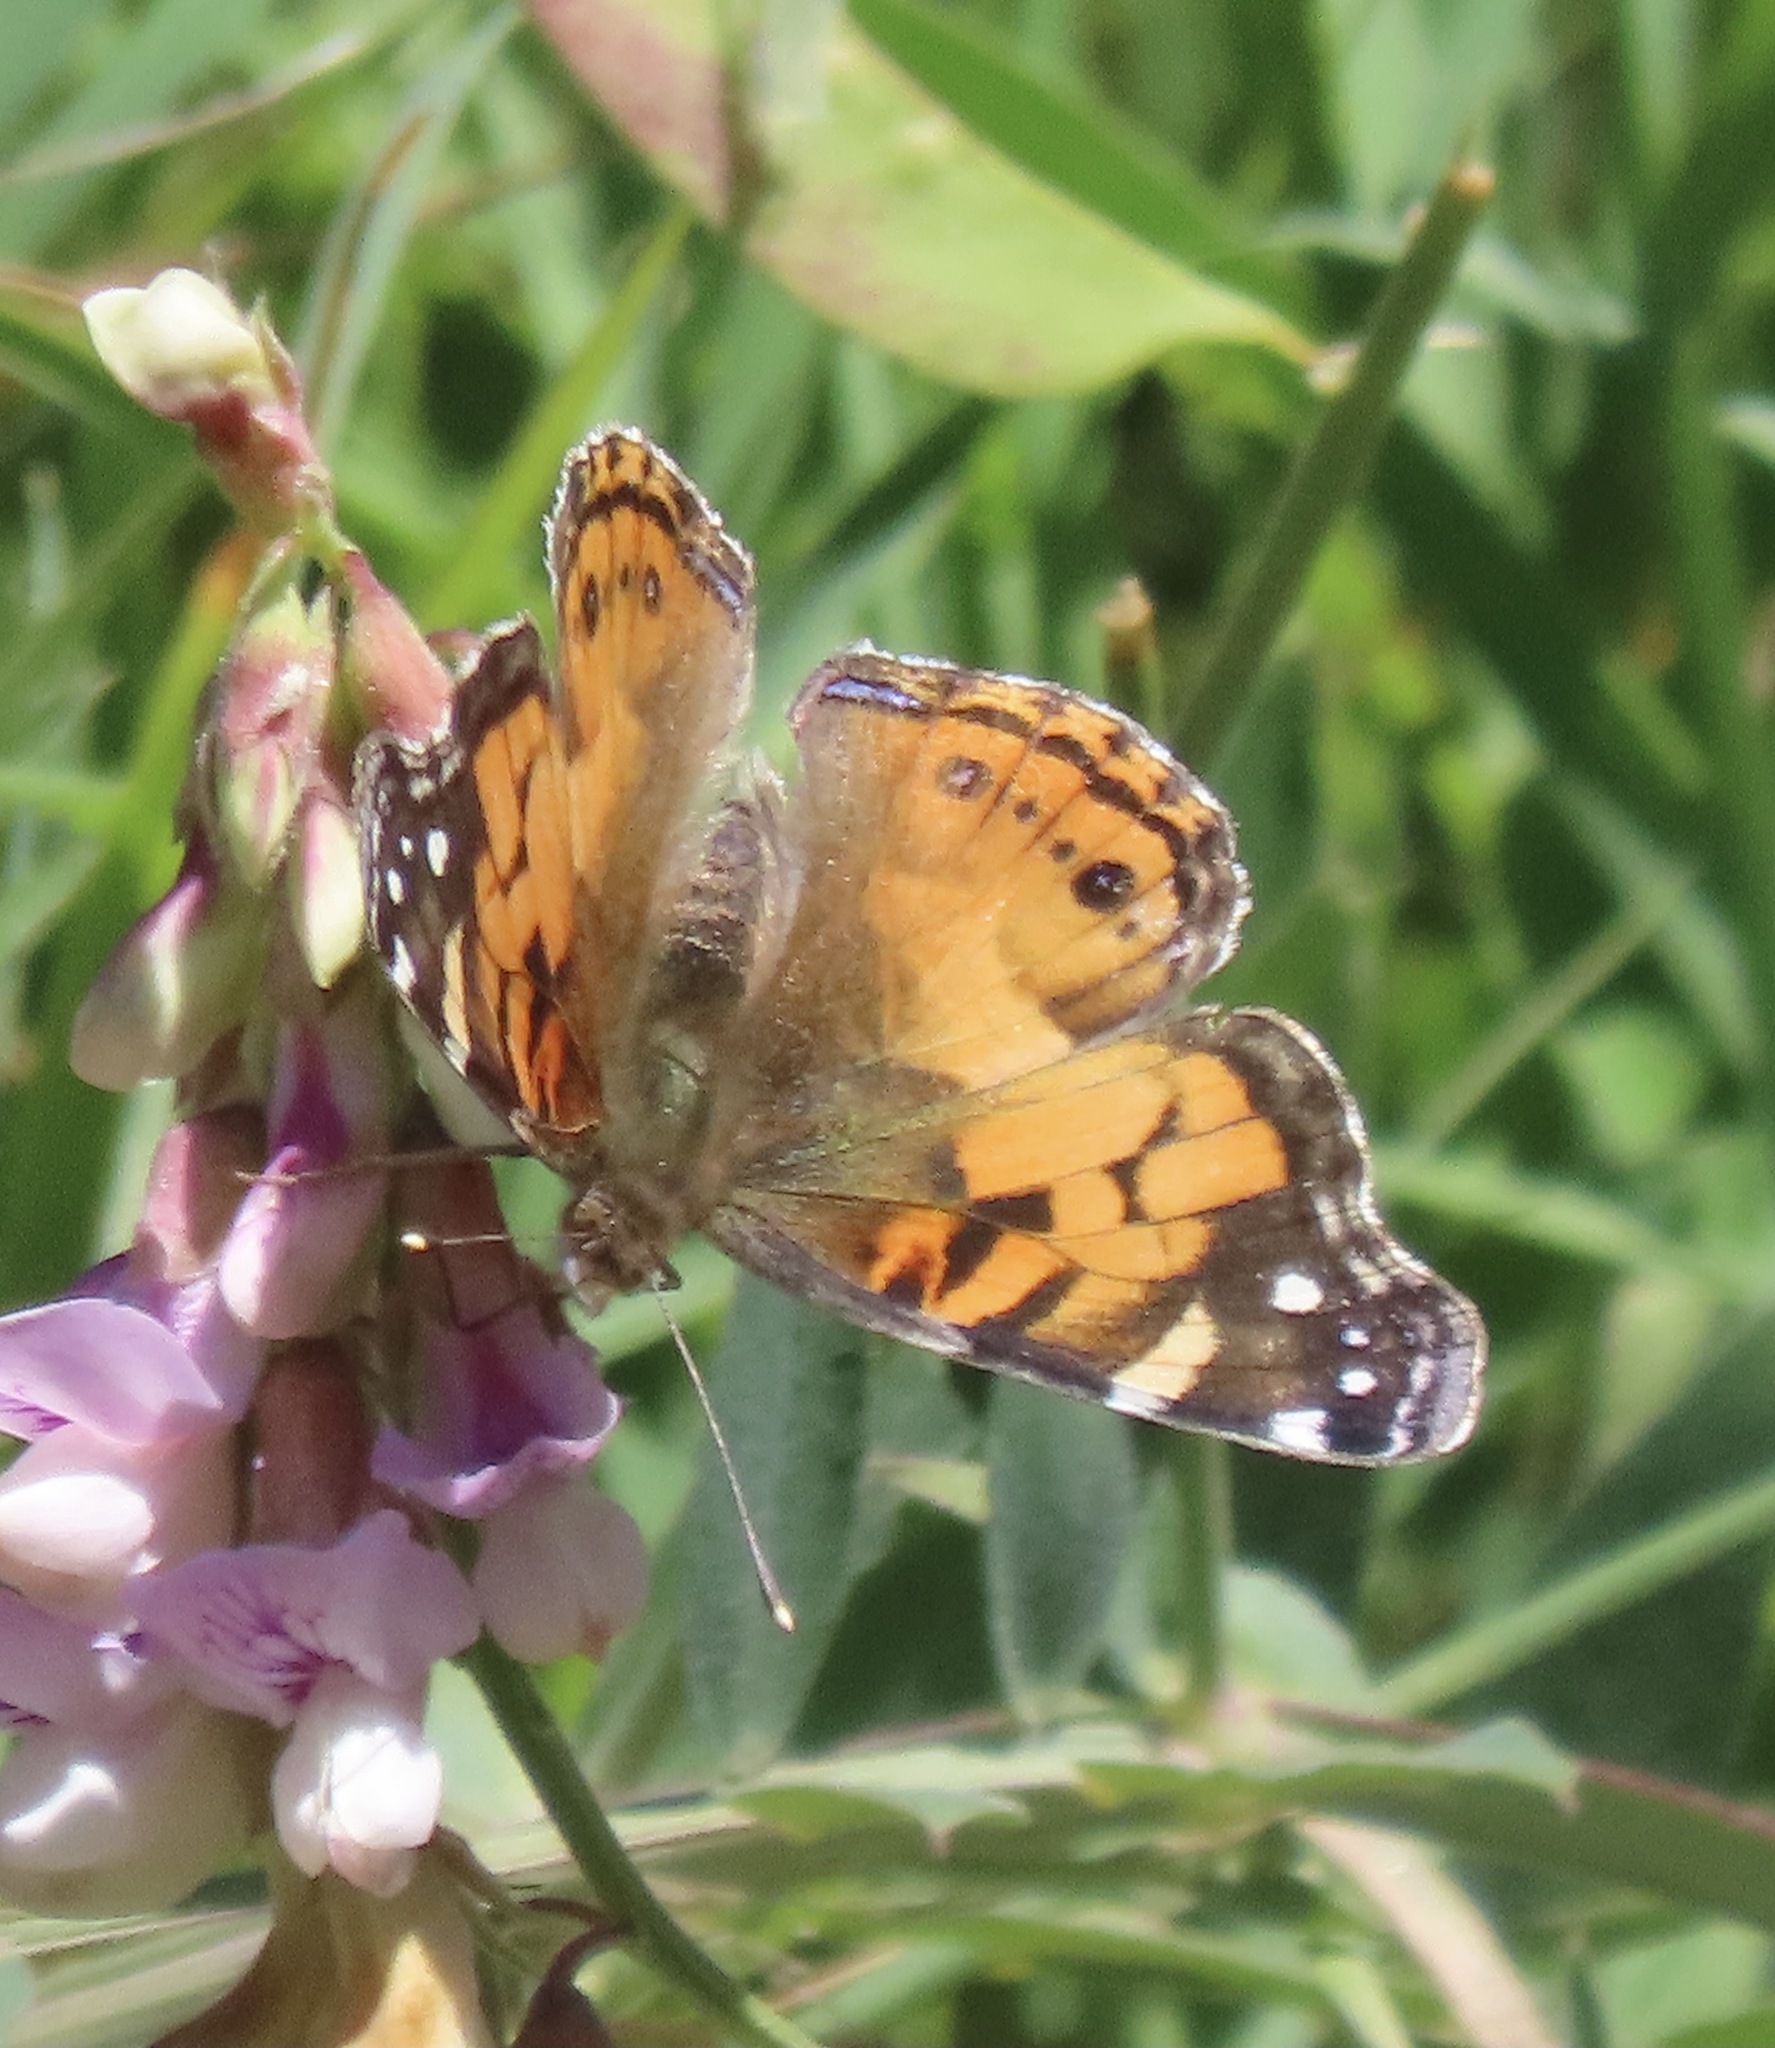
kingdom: Animalia
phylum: Arthropoda
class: Insecta
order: Lepidoptera
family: Nymphalidae
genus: Vanessa
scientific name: Vanessa virginiensis
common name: American lady
